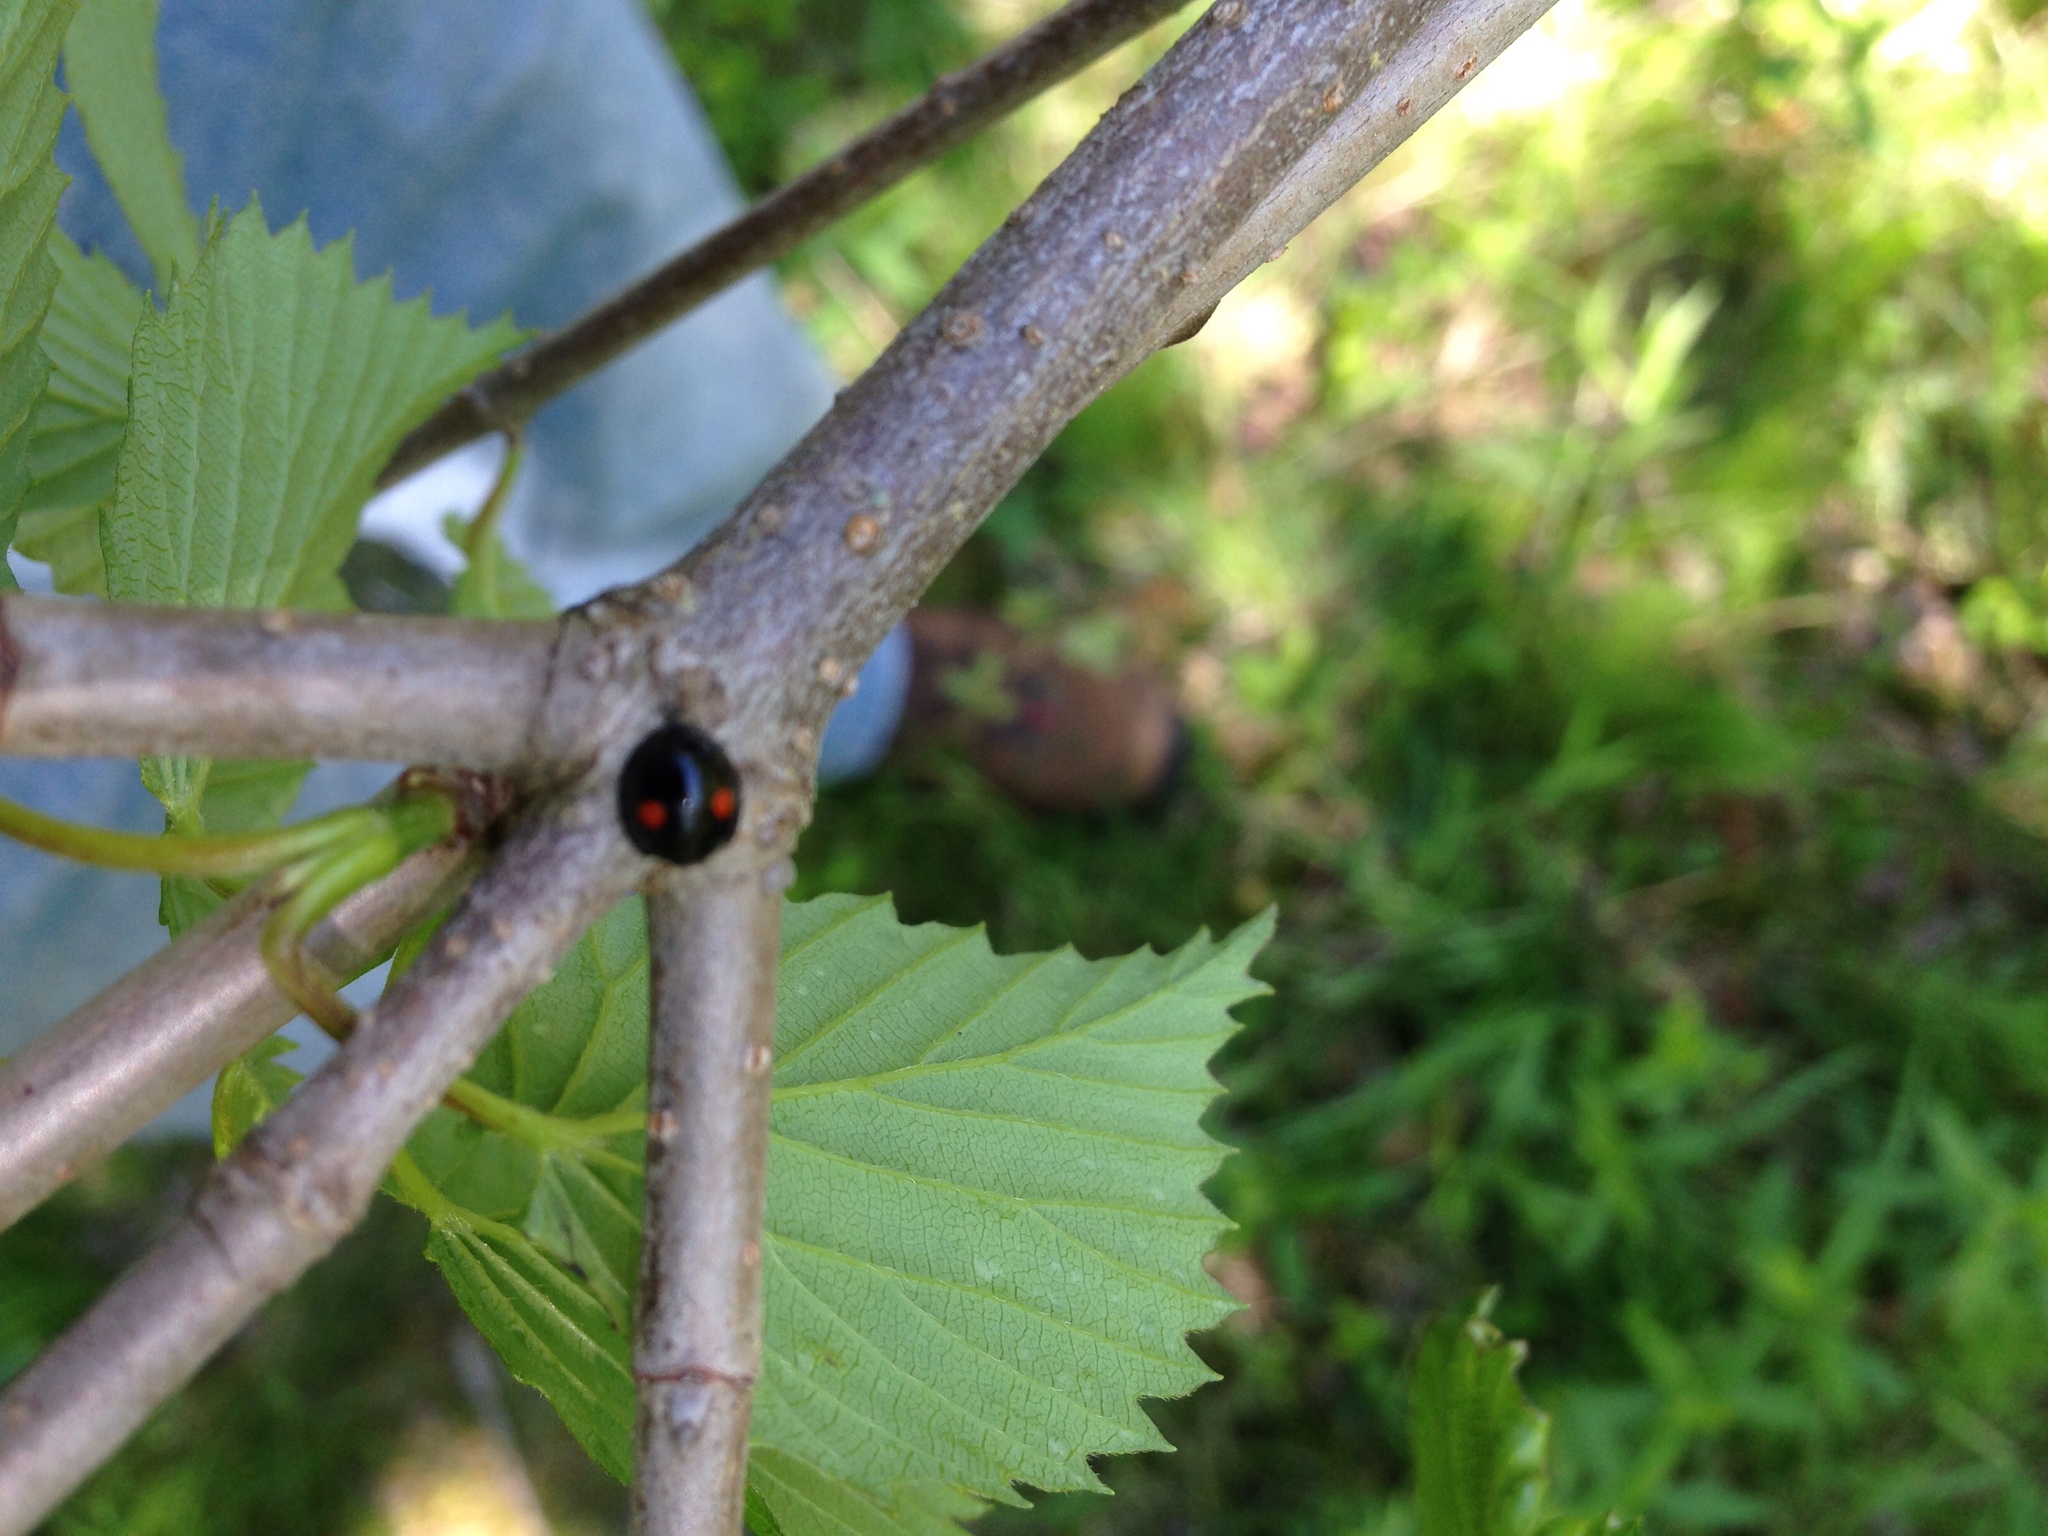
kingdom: Animalia
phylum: Arthropoda
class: Insecta
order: Coleoptera
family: Coccinellidae
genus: Chilocorus
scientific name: Chilocorus stigma
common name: Twicestabbed lady beetle
